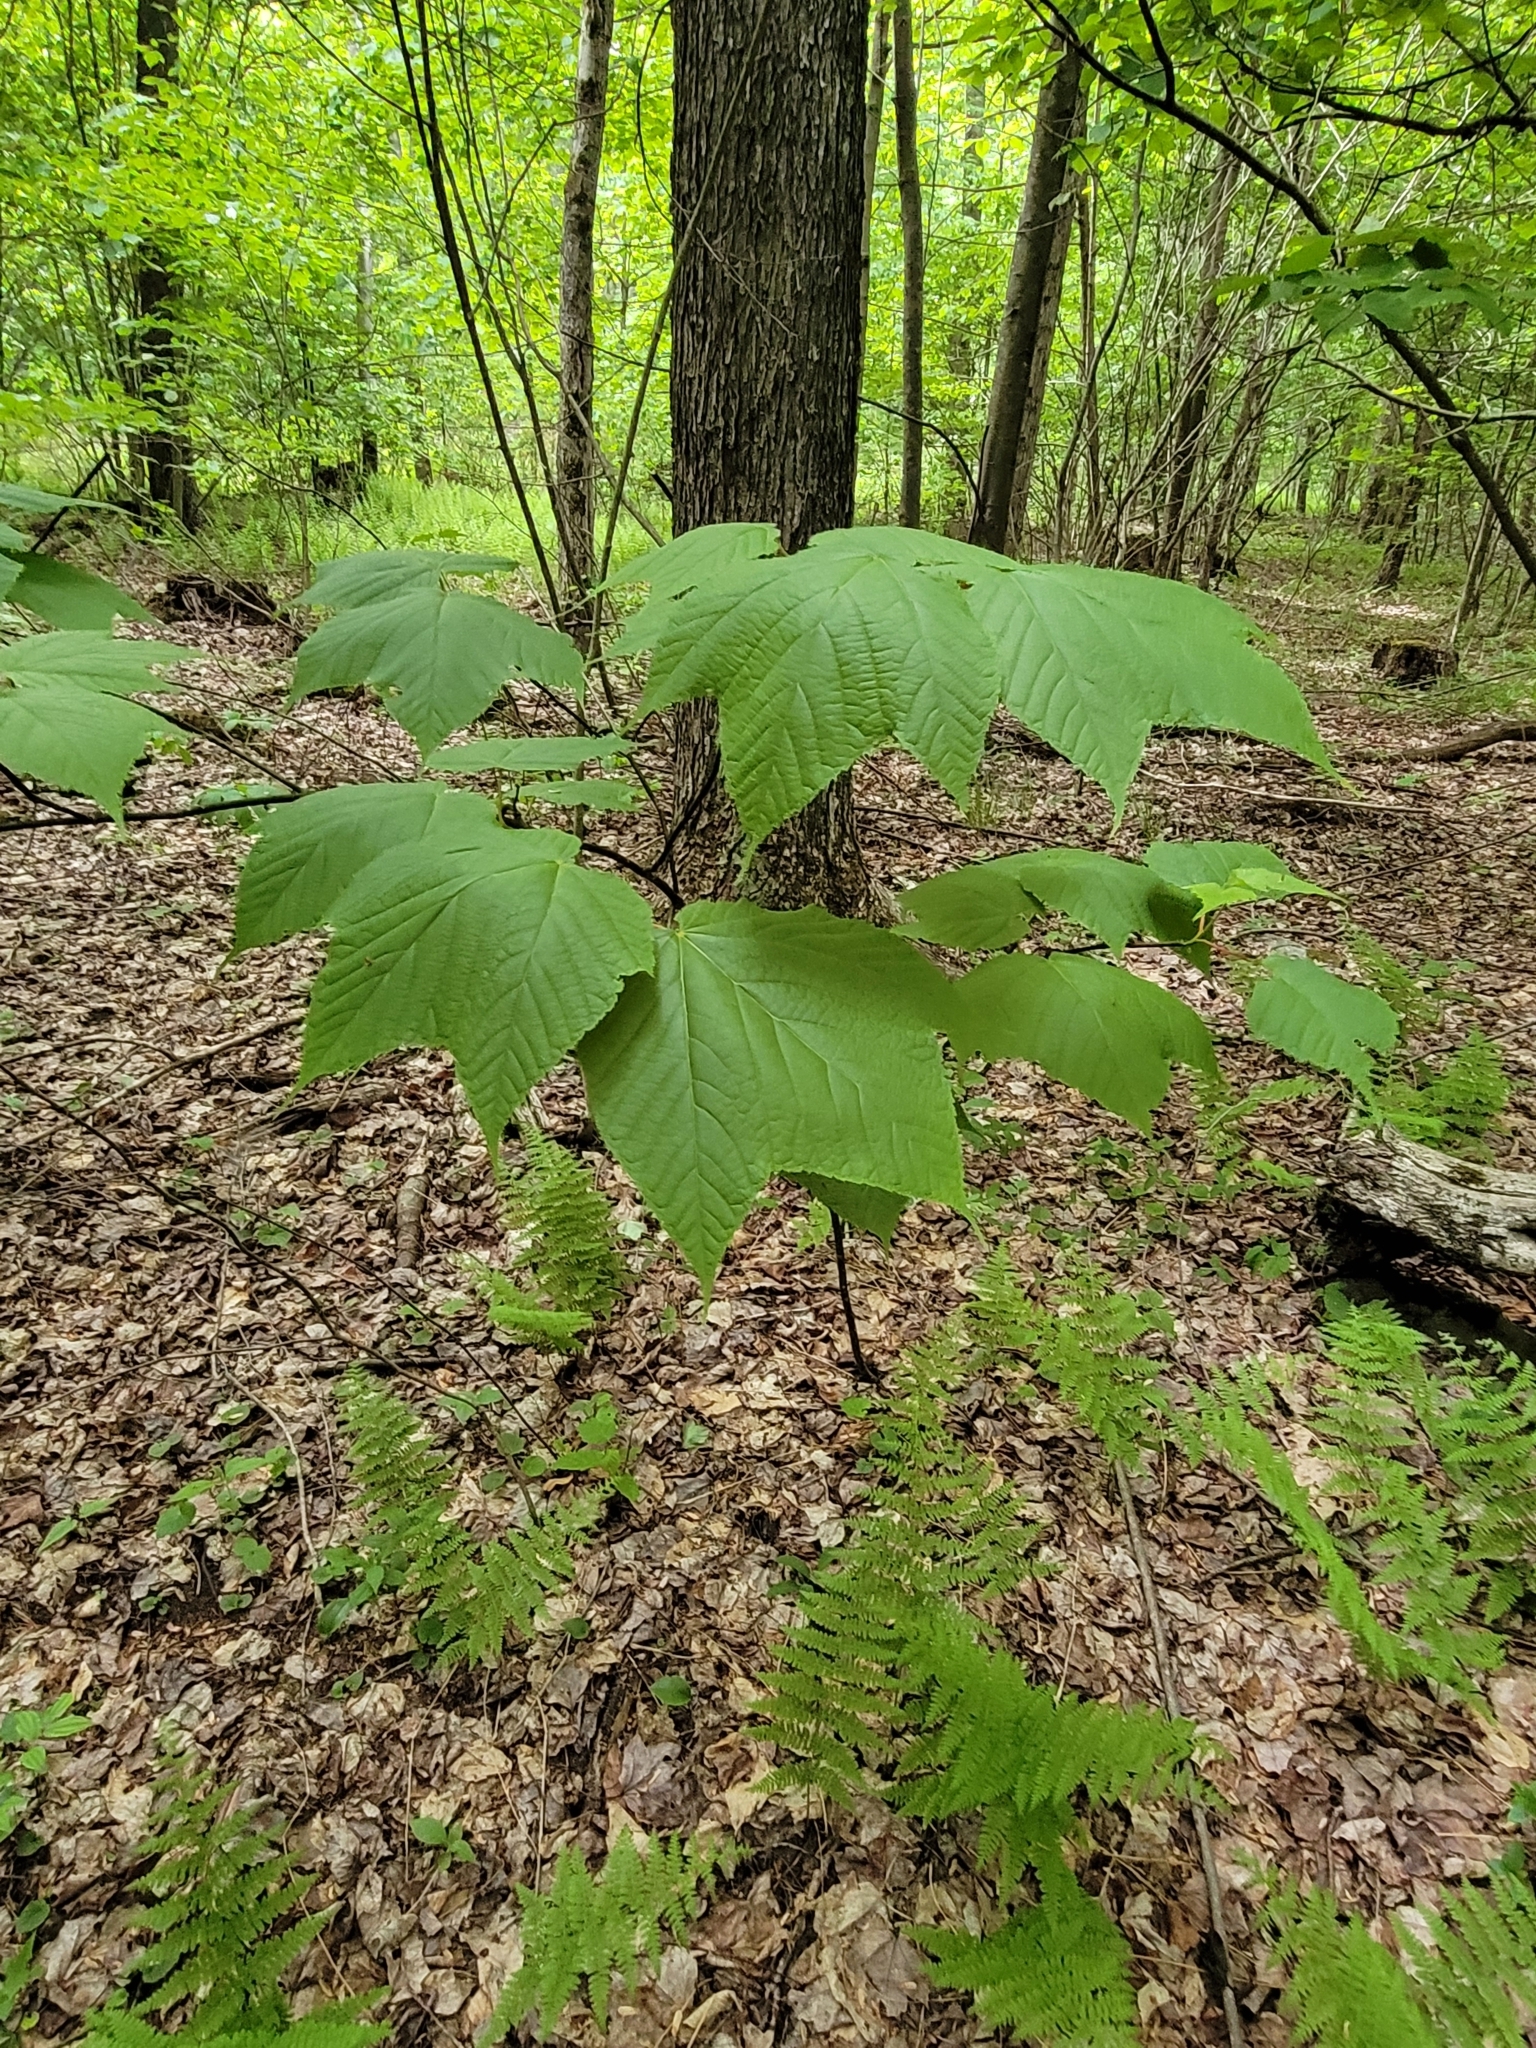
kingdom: Plantae
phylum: Tracheophyta
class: Magnoliopsida
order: Sapindales
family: Sapindaceae
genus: Acer
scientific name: Acer pensylvanicum
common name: Moosewood
